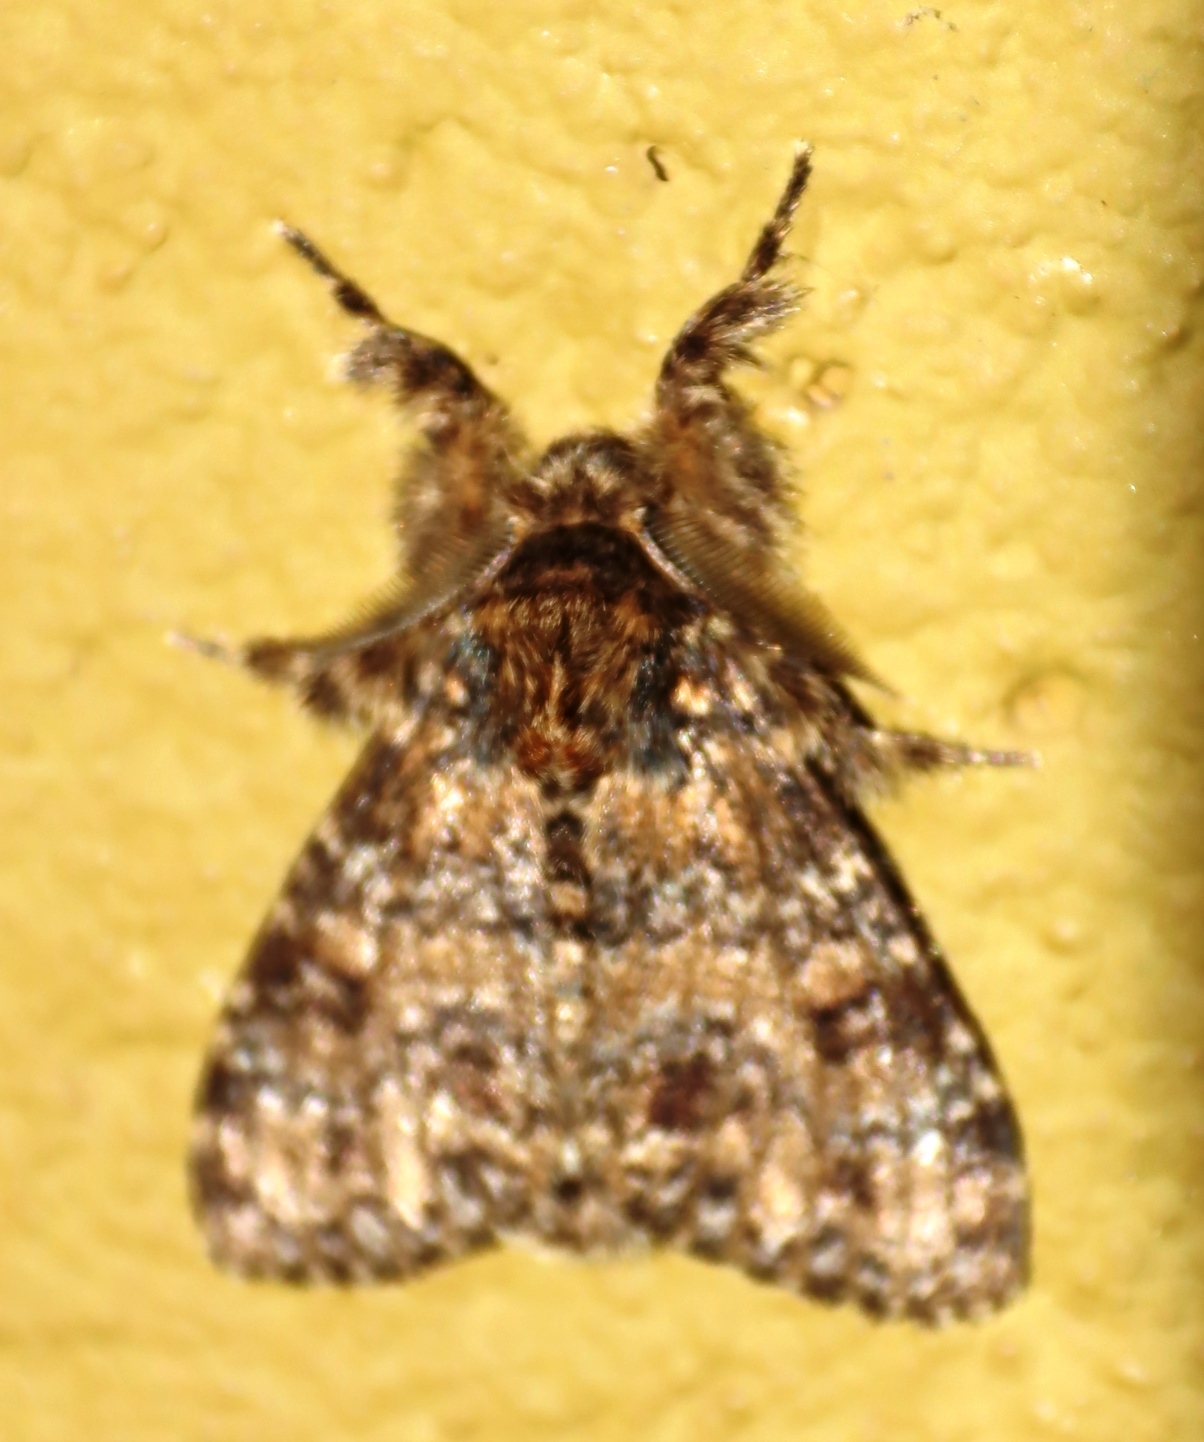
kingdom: Animalia
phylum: Arthropoda
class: Insecta
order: Lepidoptera
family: Erebidae
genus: Dasychira
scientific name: Dasychira extorta
